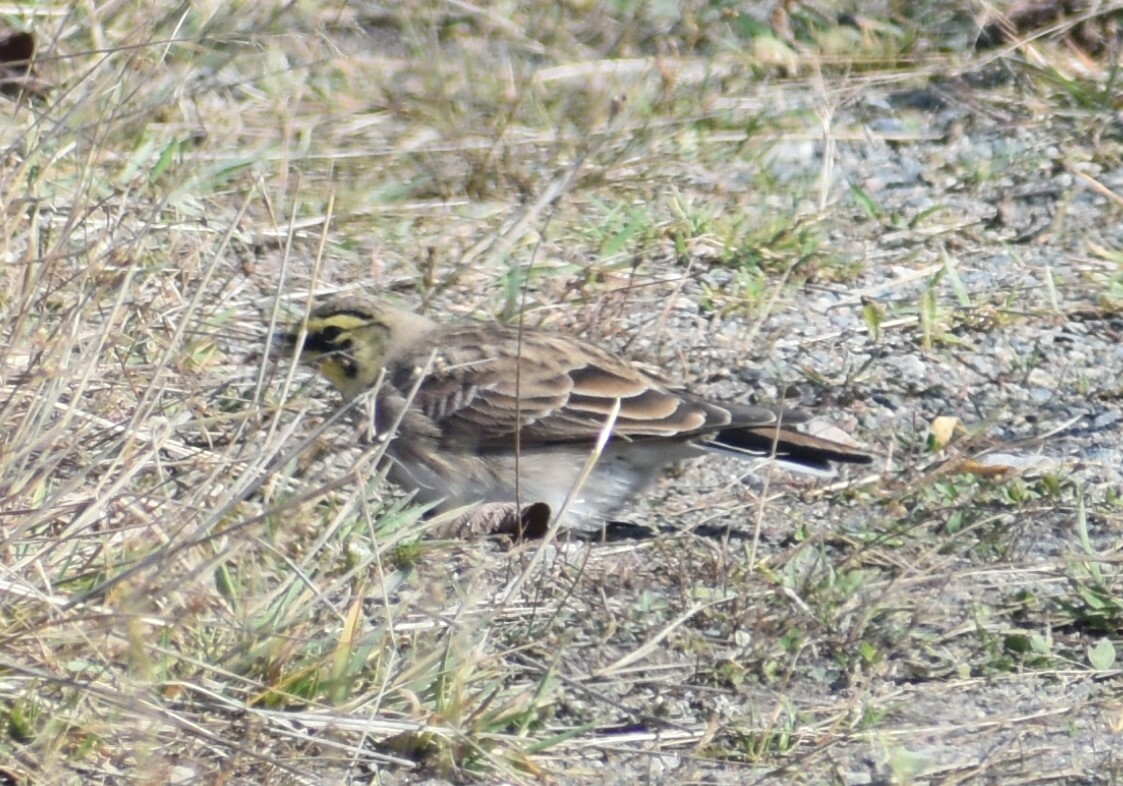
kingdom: Animalia
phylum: Chordata
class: Aves
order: Passeriformes
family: Alaudidae
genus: Eremophila
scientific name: Eremophila alpestris
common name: Horned lark
